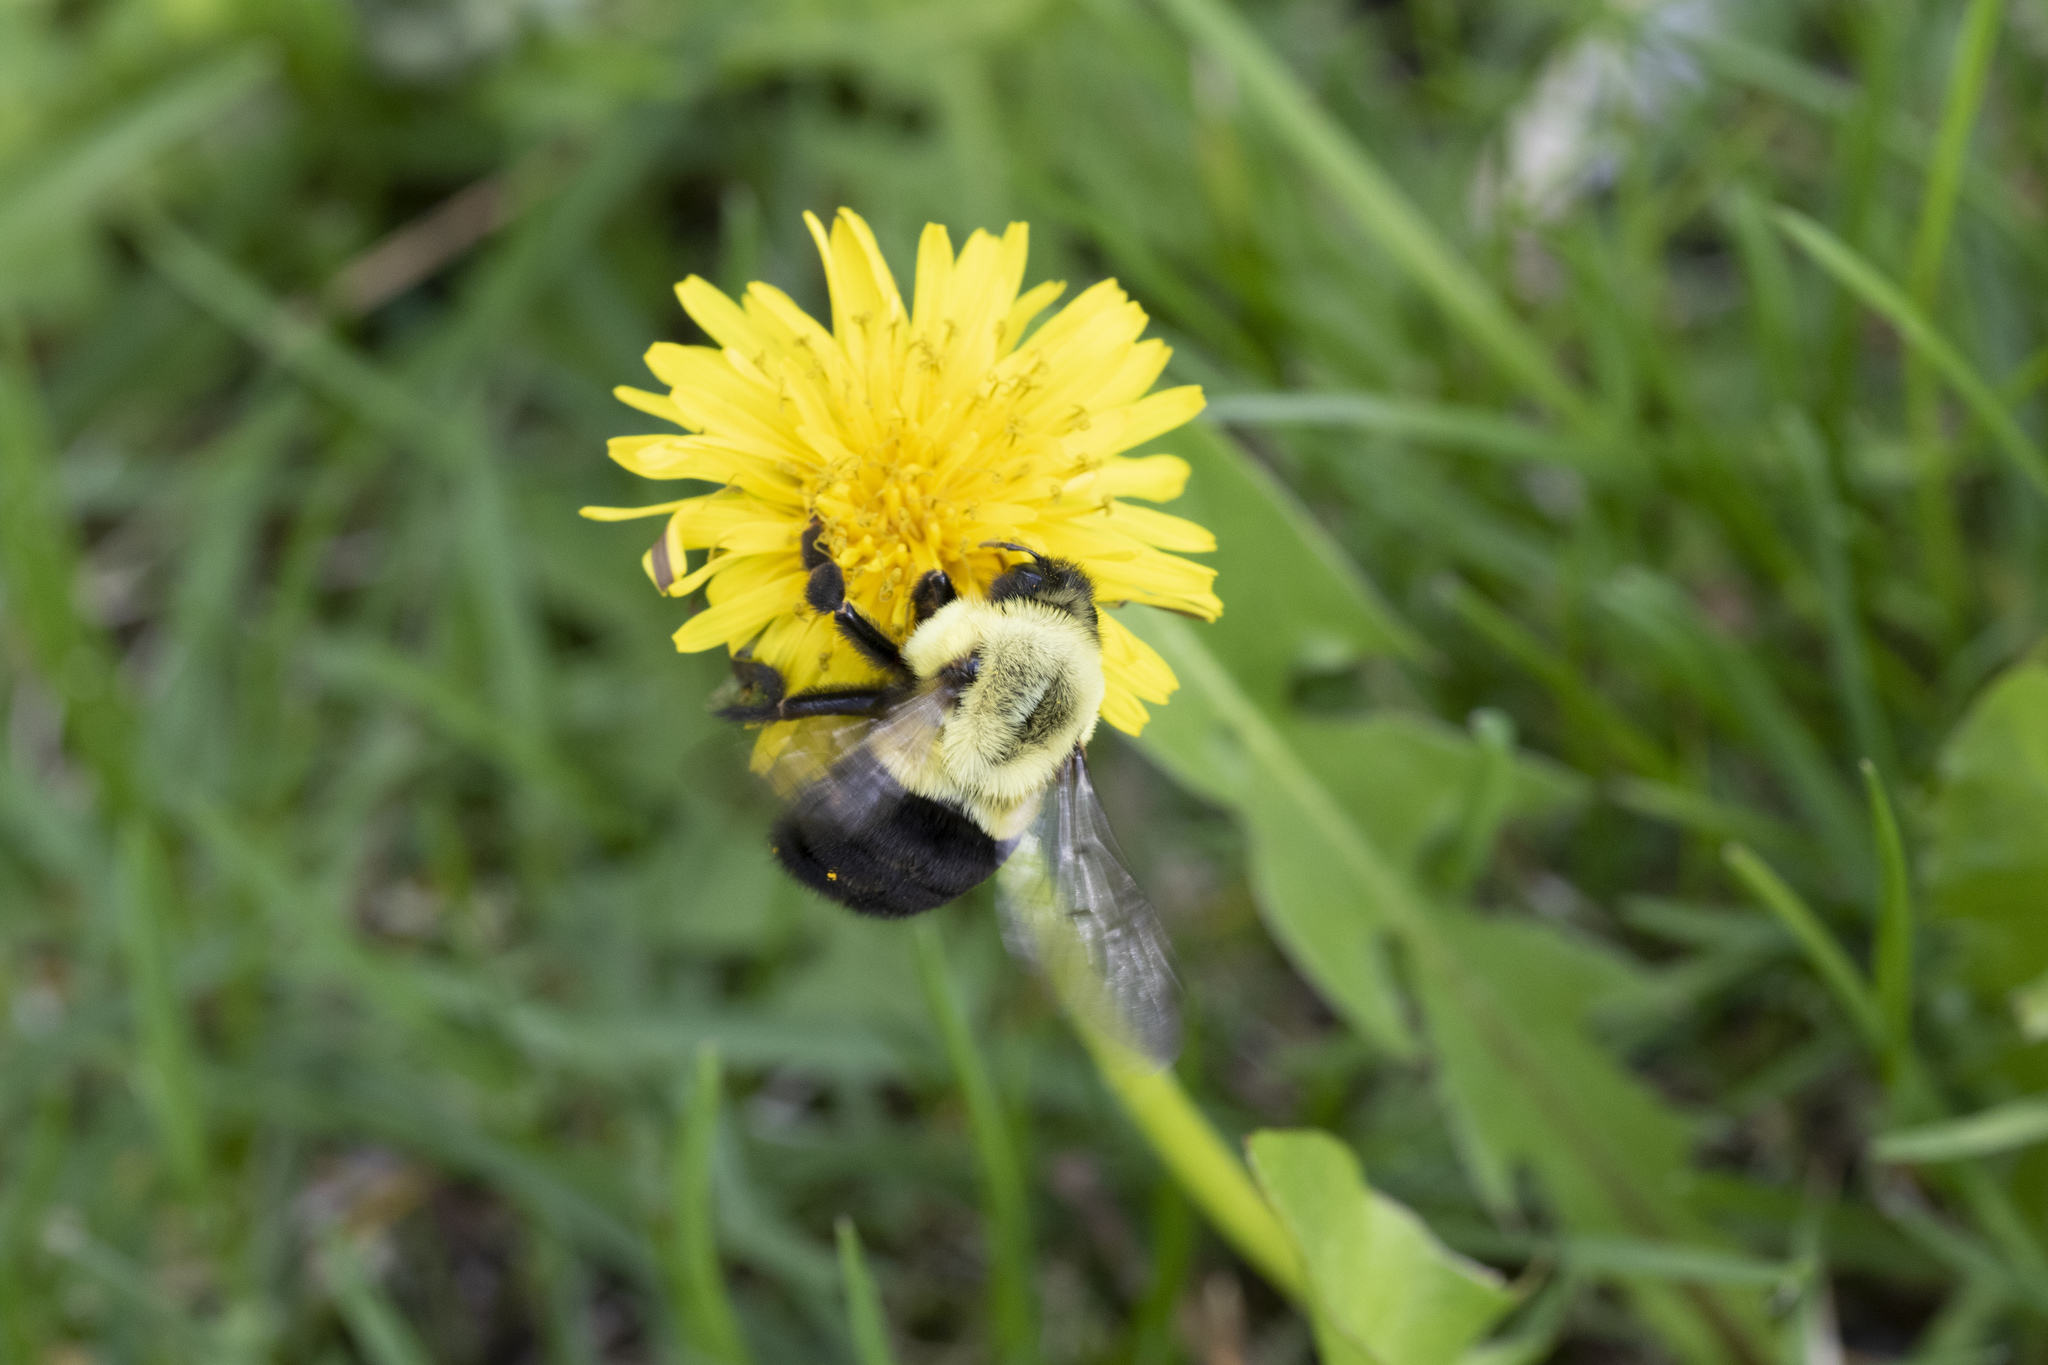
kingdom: Animalia
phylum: Arthropoda
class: Insecta
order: Hymenoptera
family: Apidae
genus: Bombus
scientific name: Bombus impatiens
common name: Common eastern bumble bee
